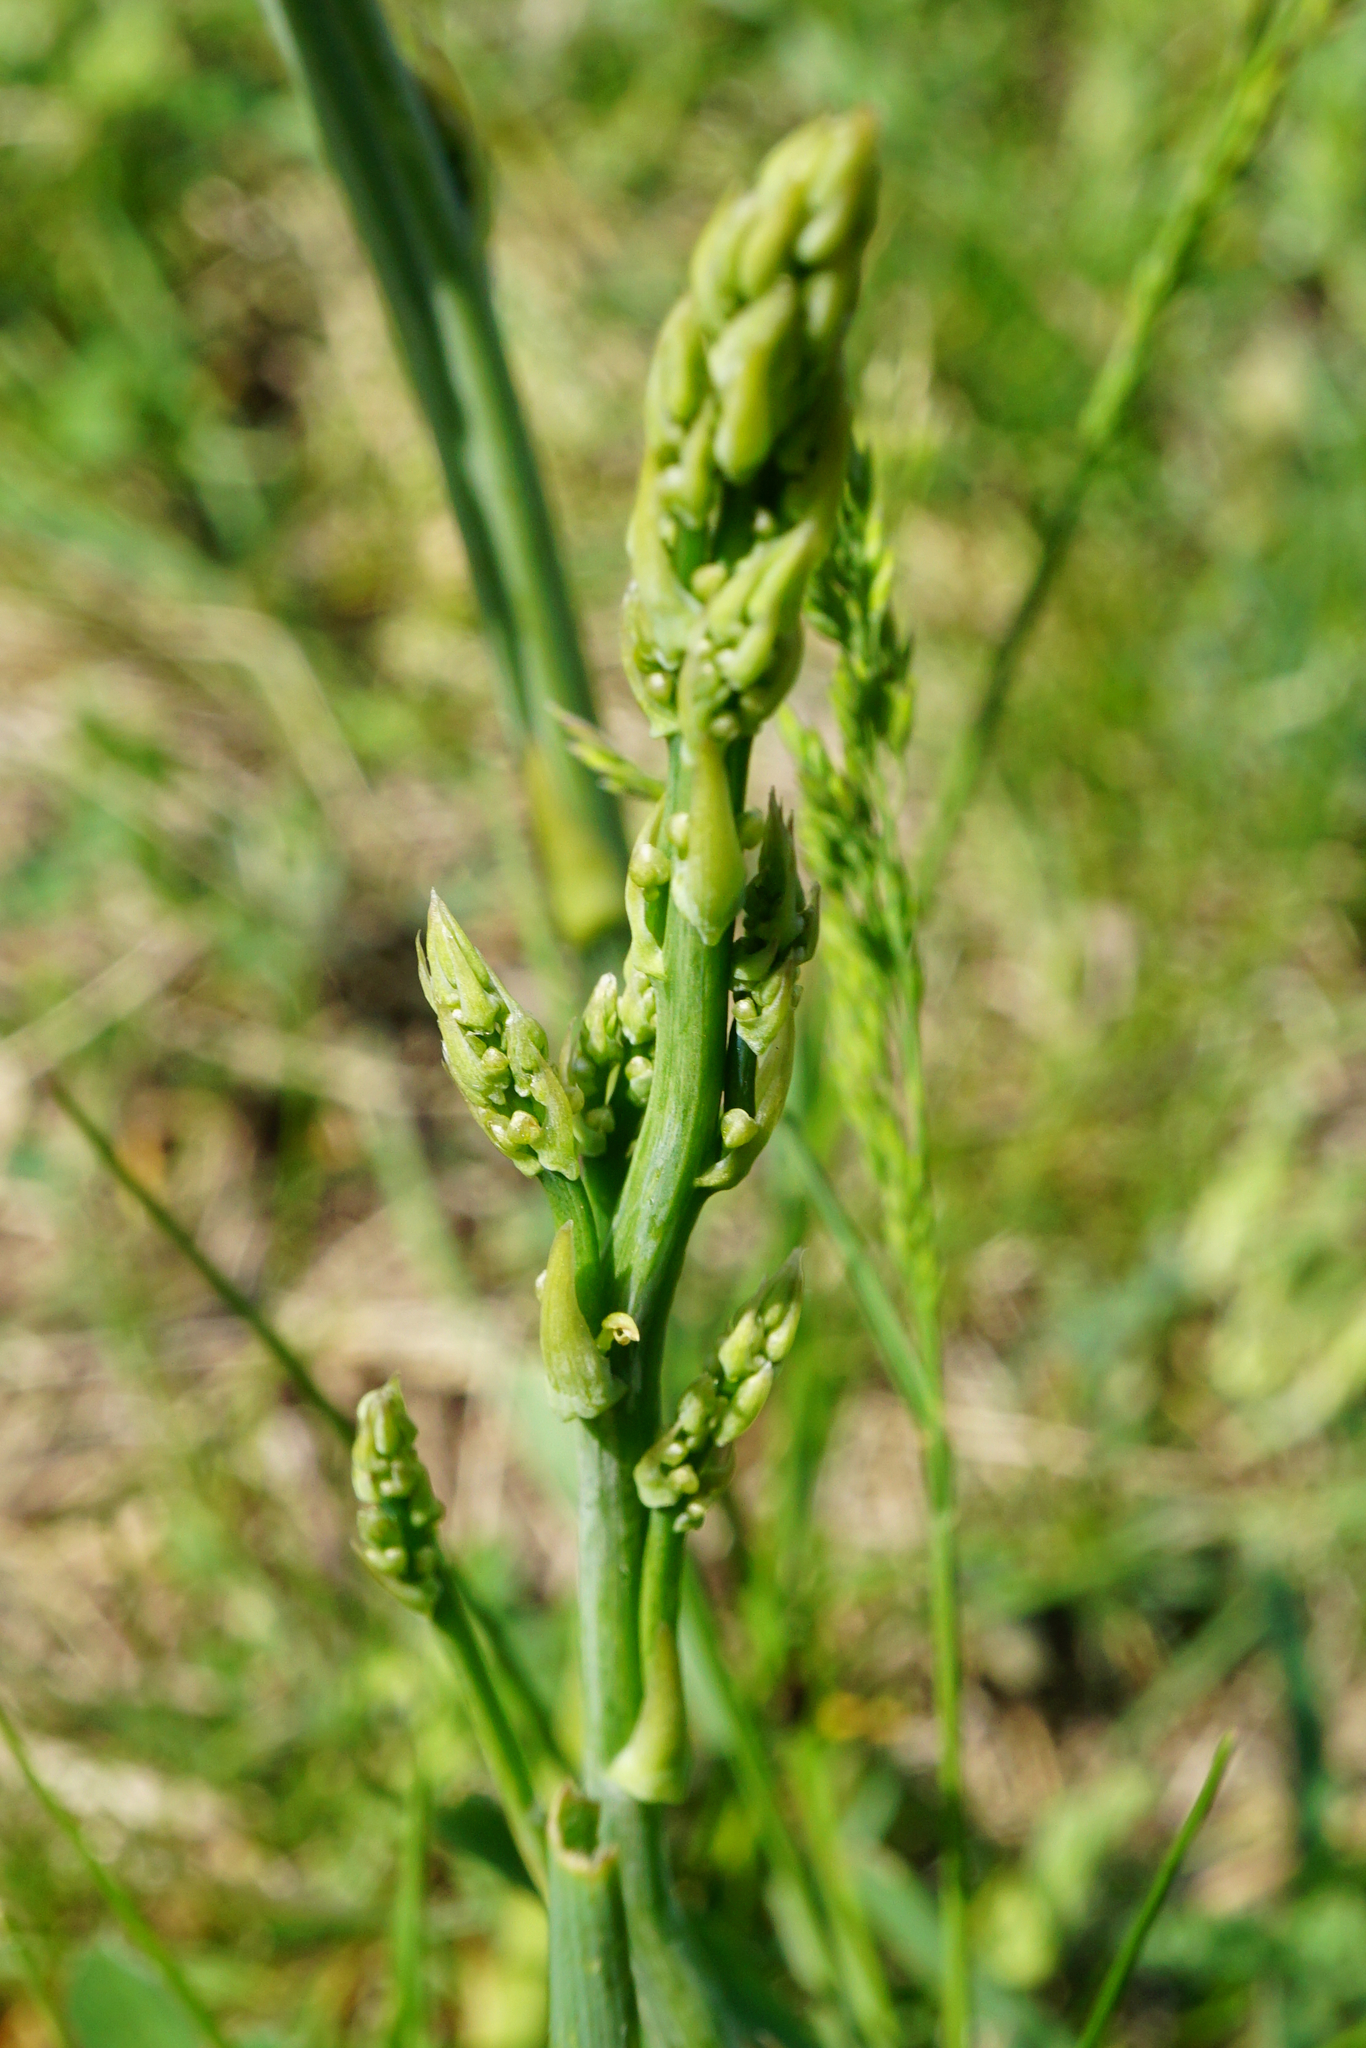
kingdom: Plantae
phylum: Tracheophyta
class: Liliopsida
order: Asparagales
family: Asparagaceae
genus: Asparagus
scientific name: Asparagus officinalis
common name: Garden asparagus
